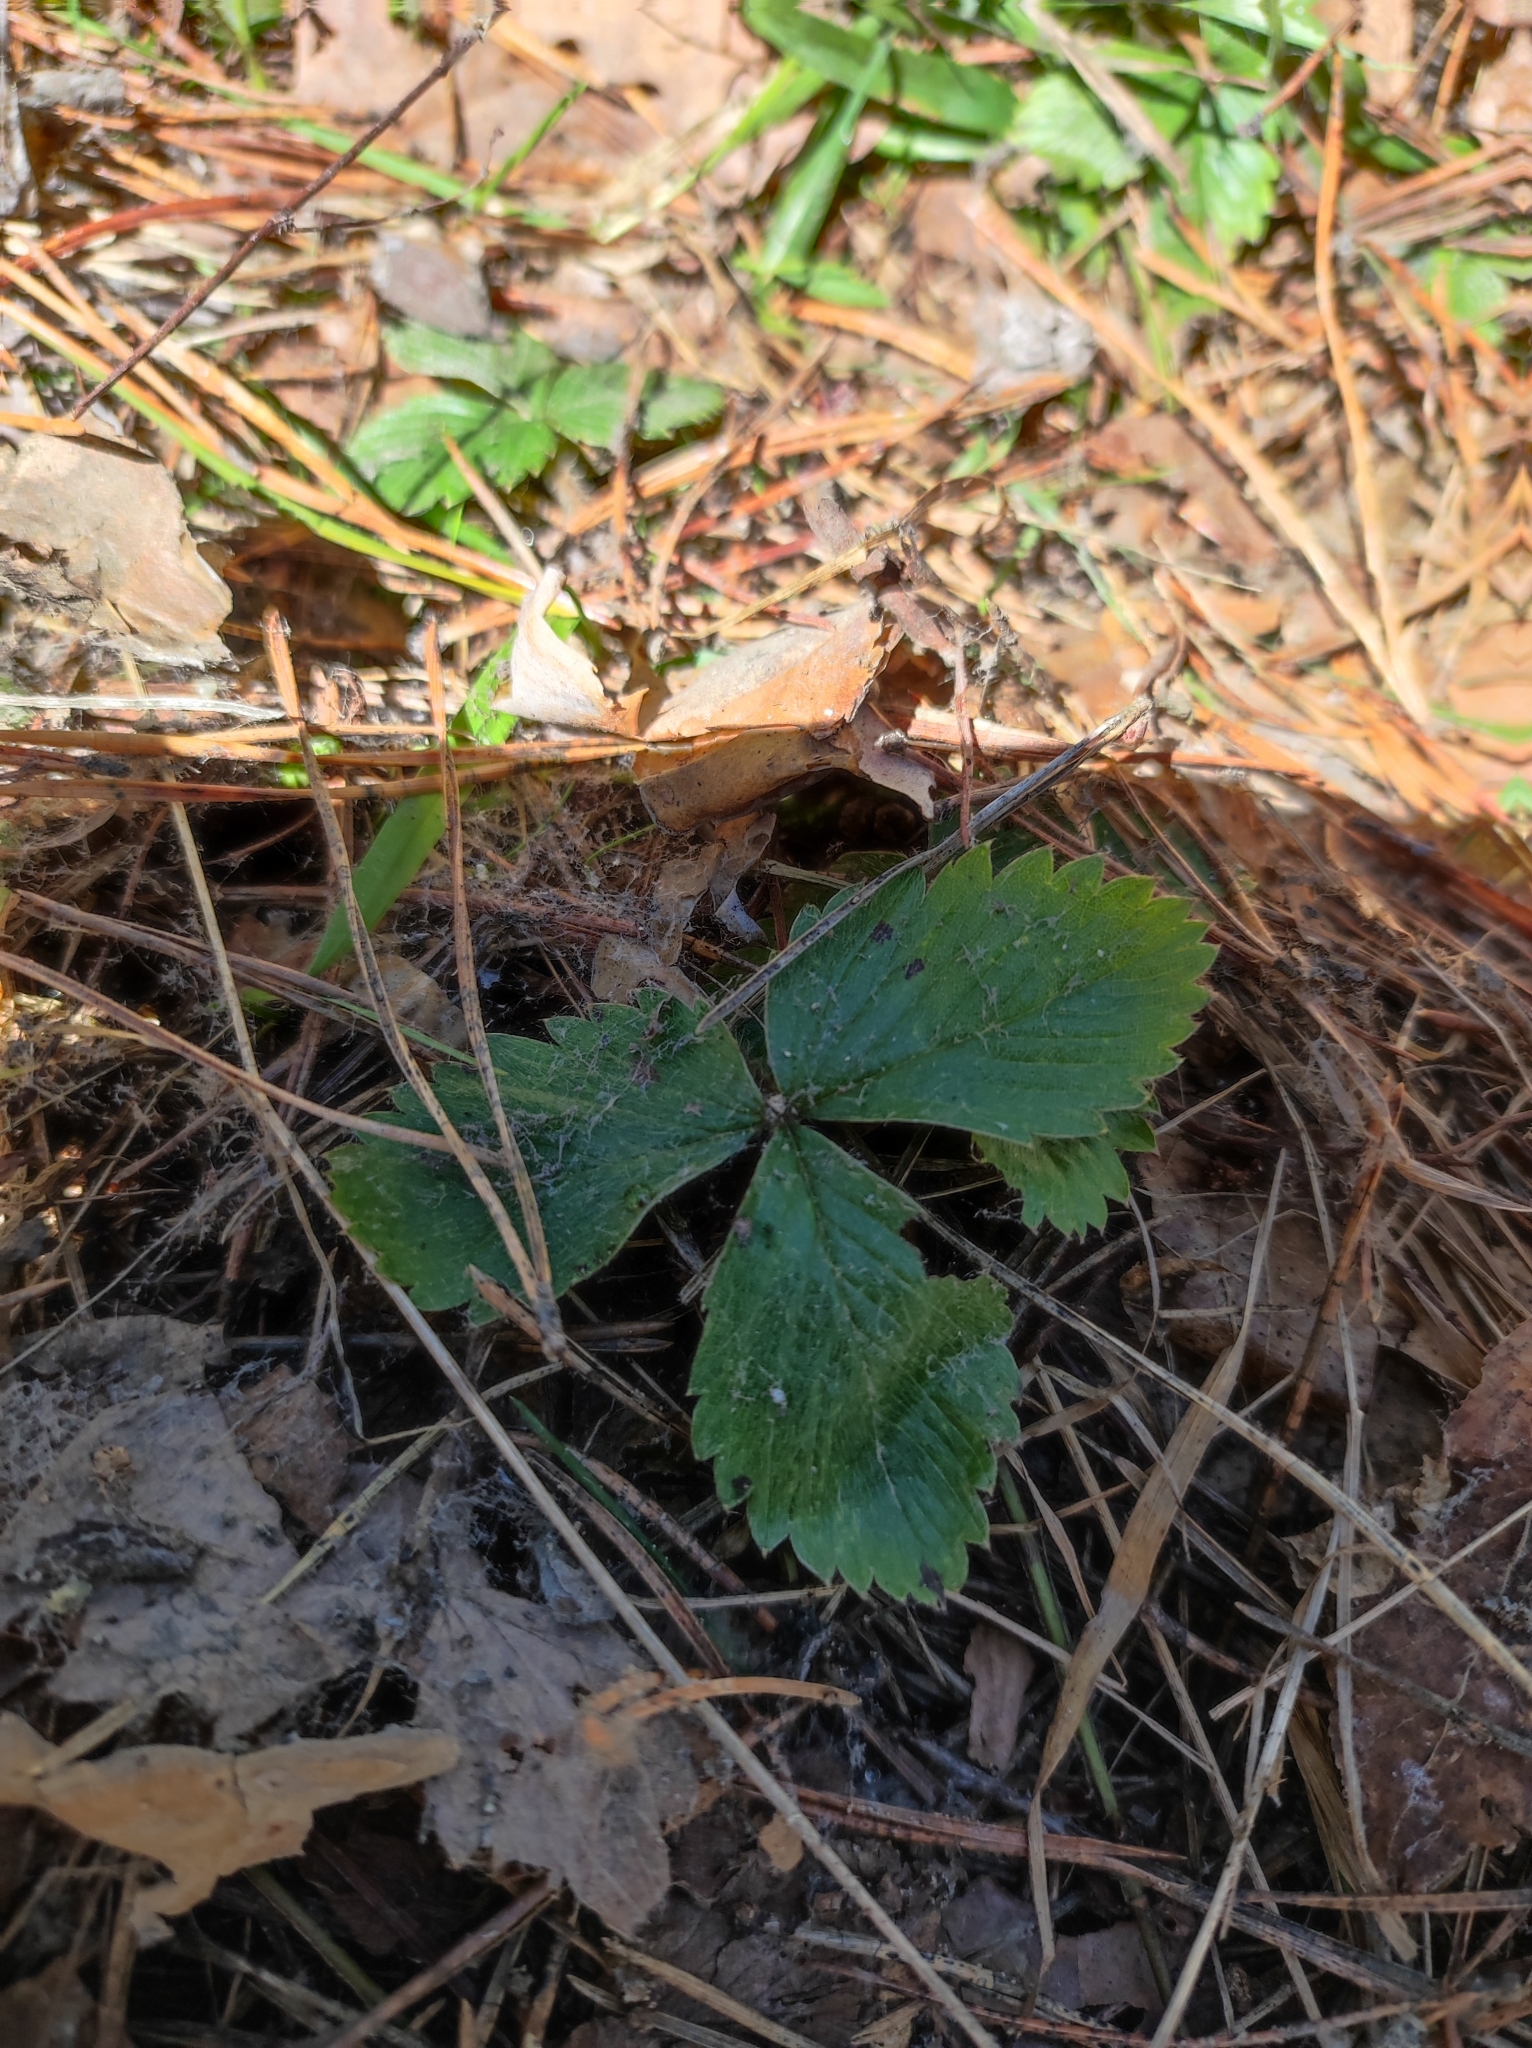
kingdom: Plantae
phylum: Tracheophyta
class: Magnoliopsida
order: Rosales
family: Rosaceae
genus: Fragaria
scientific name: Fragaria vesca
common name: Wild strawberry
